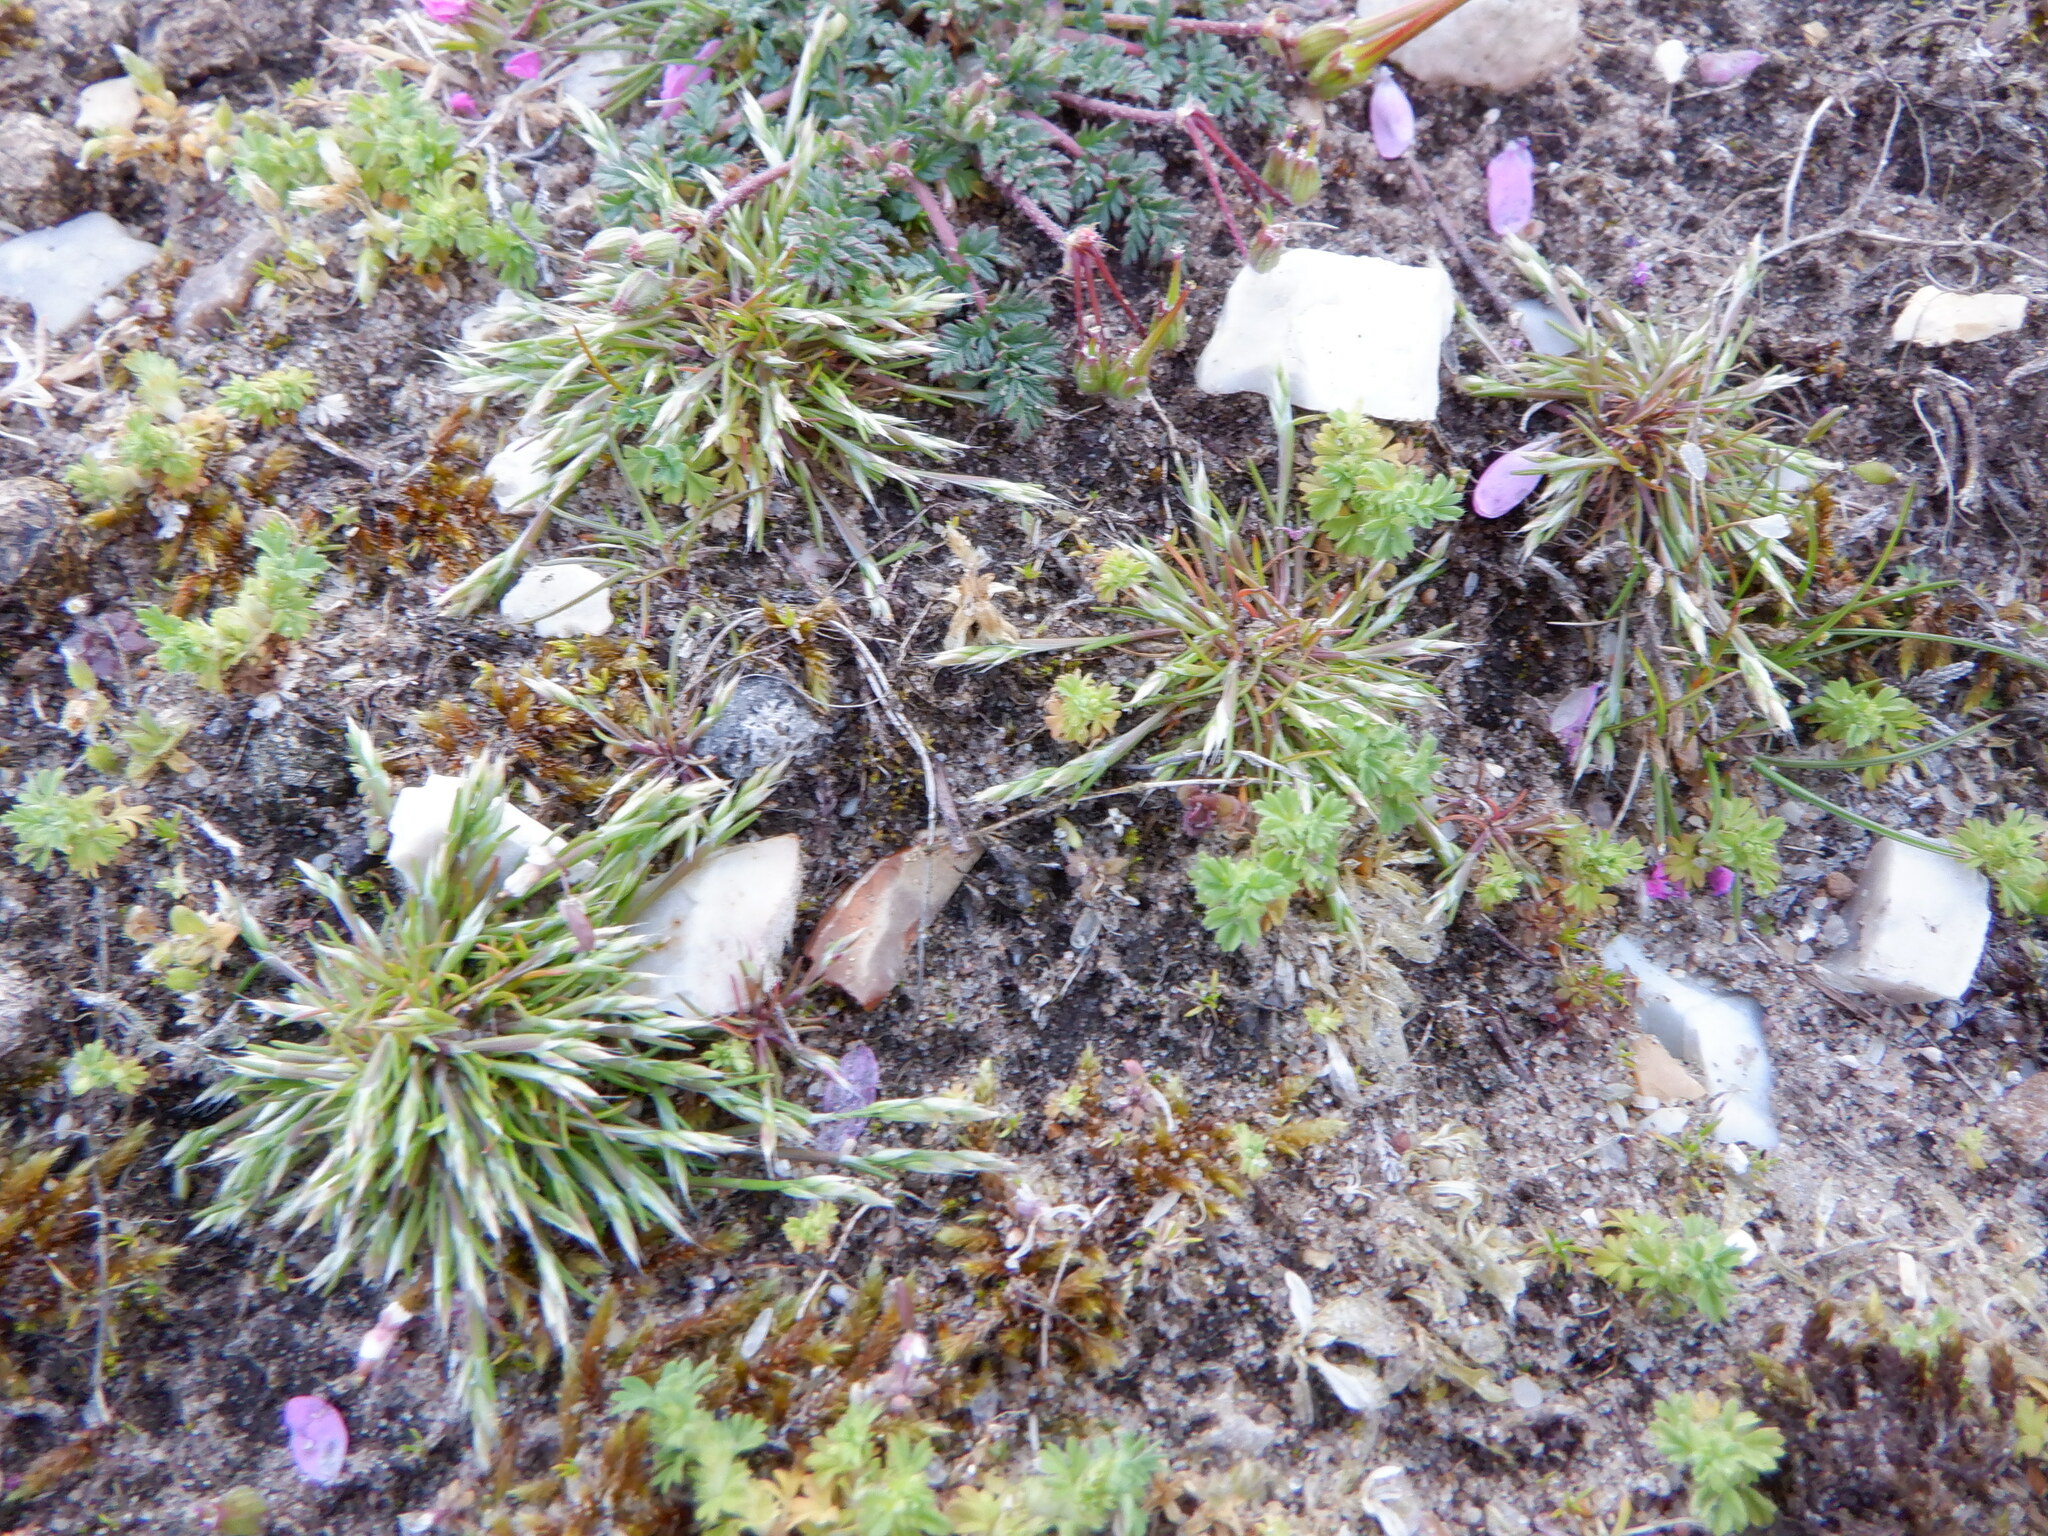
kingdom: Plantae
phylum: Tracheophyta
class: Liliopsida
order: Poales
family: Poaceae
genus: Aira
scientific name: Aira praecox
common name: Early hair-grass
